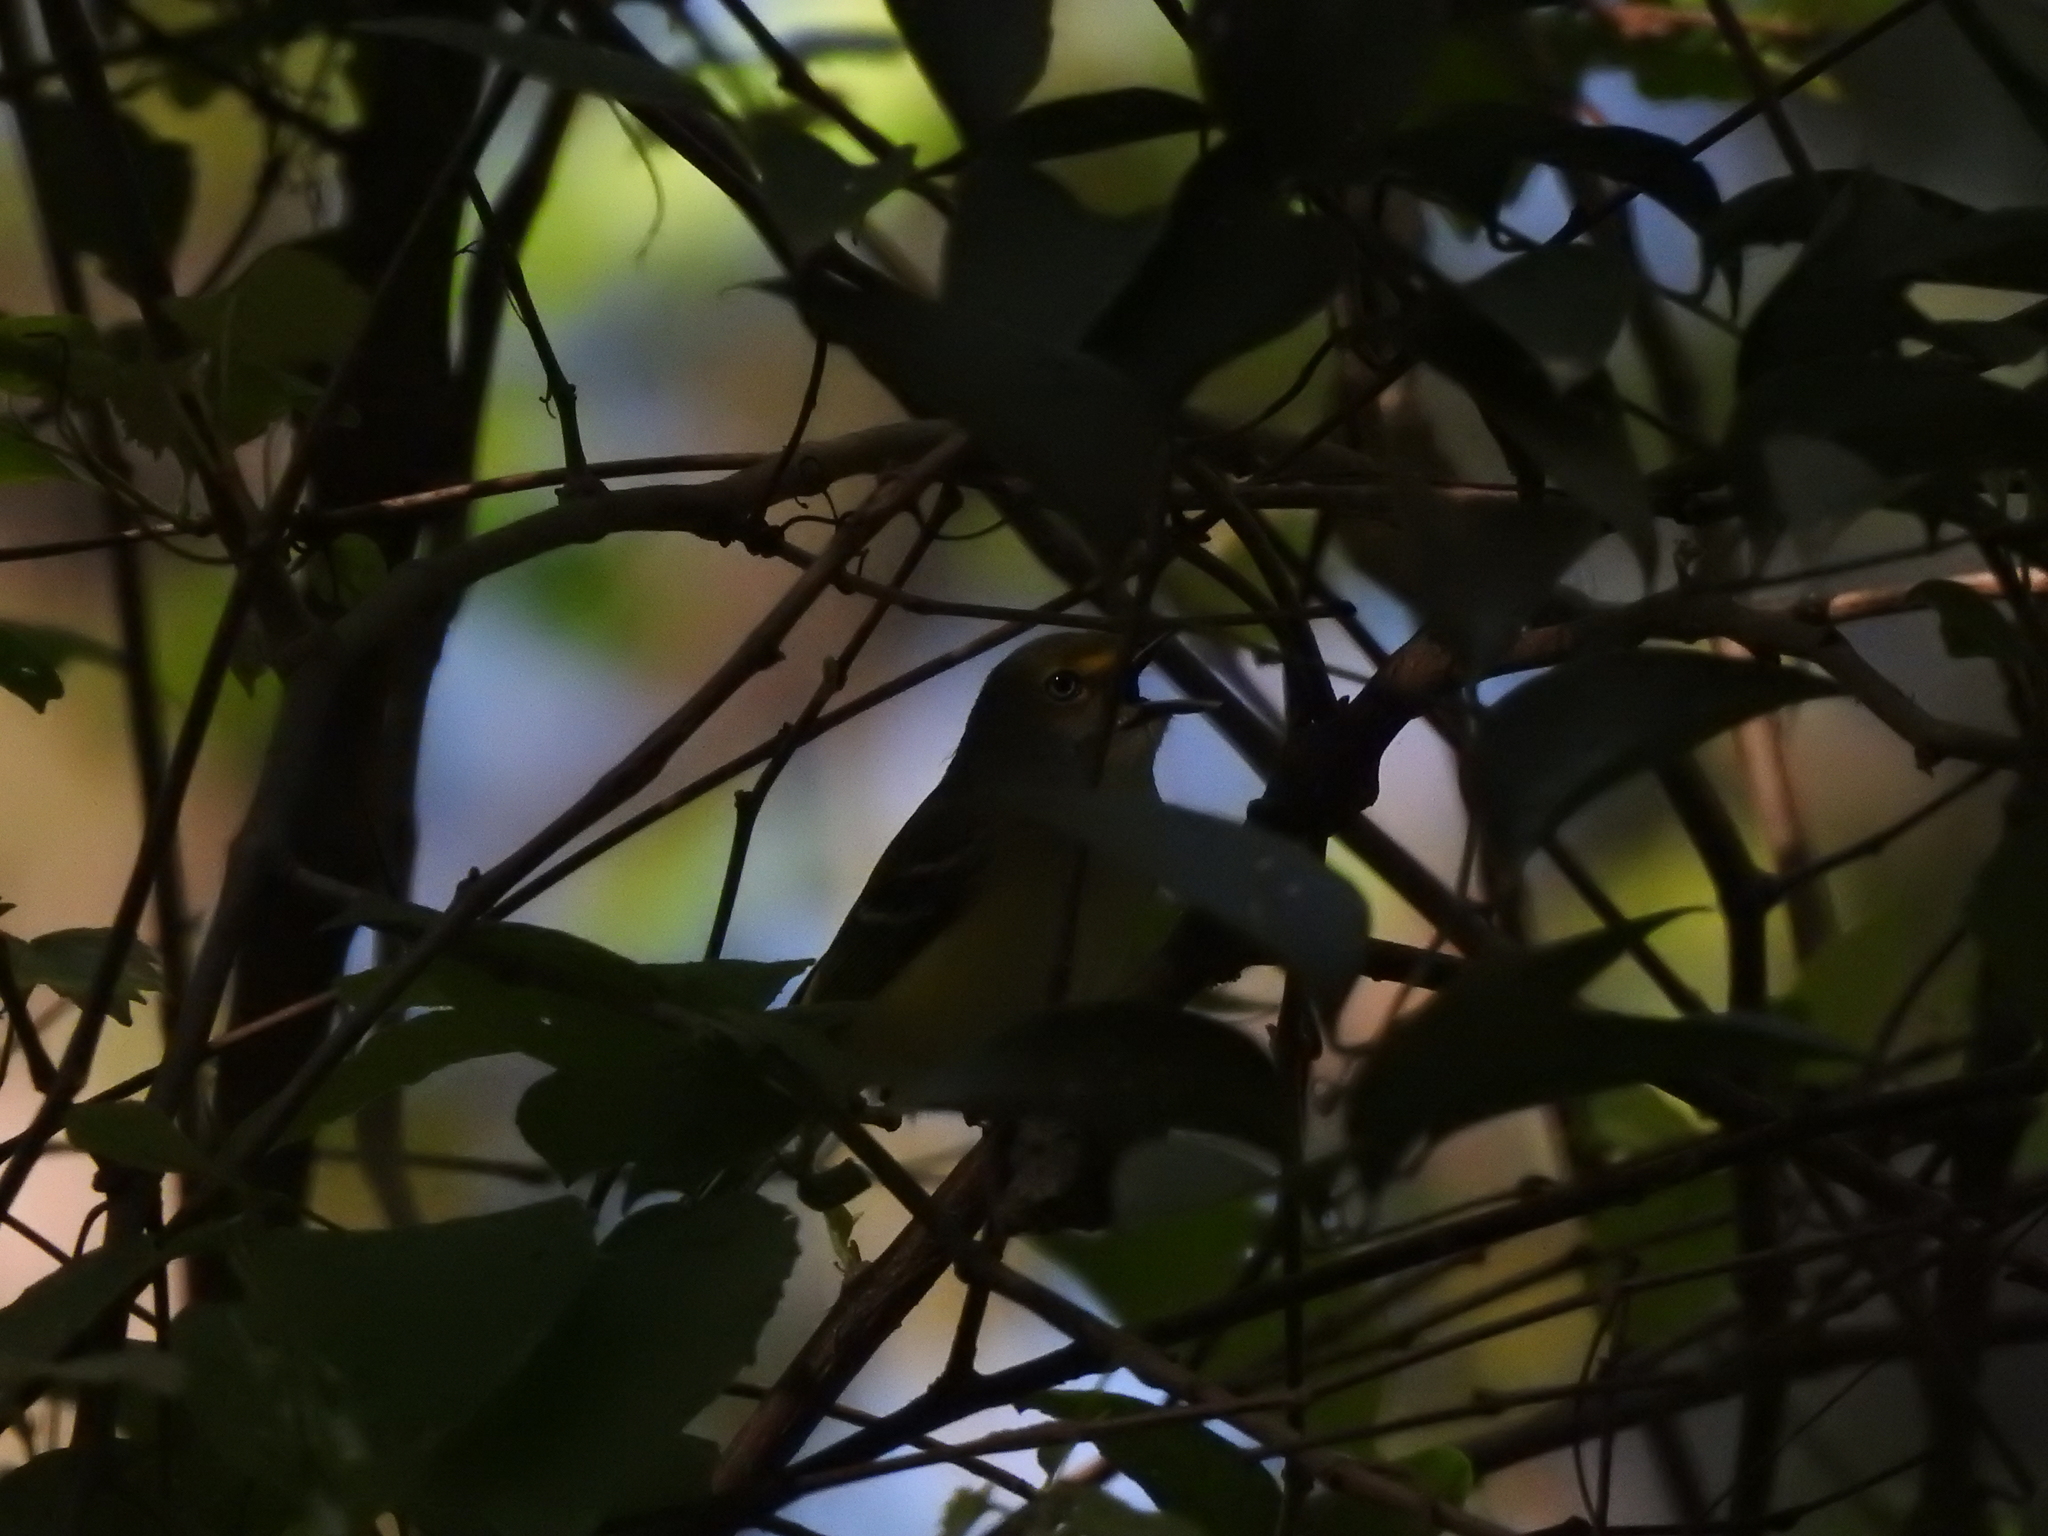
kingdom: Animalia
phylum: Chordata
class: Aves
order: Passeriformes
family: Vireonidae
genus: Vireo
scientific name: Vireo griseus
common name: White-eyed vireo
